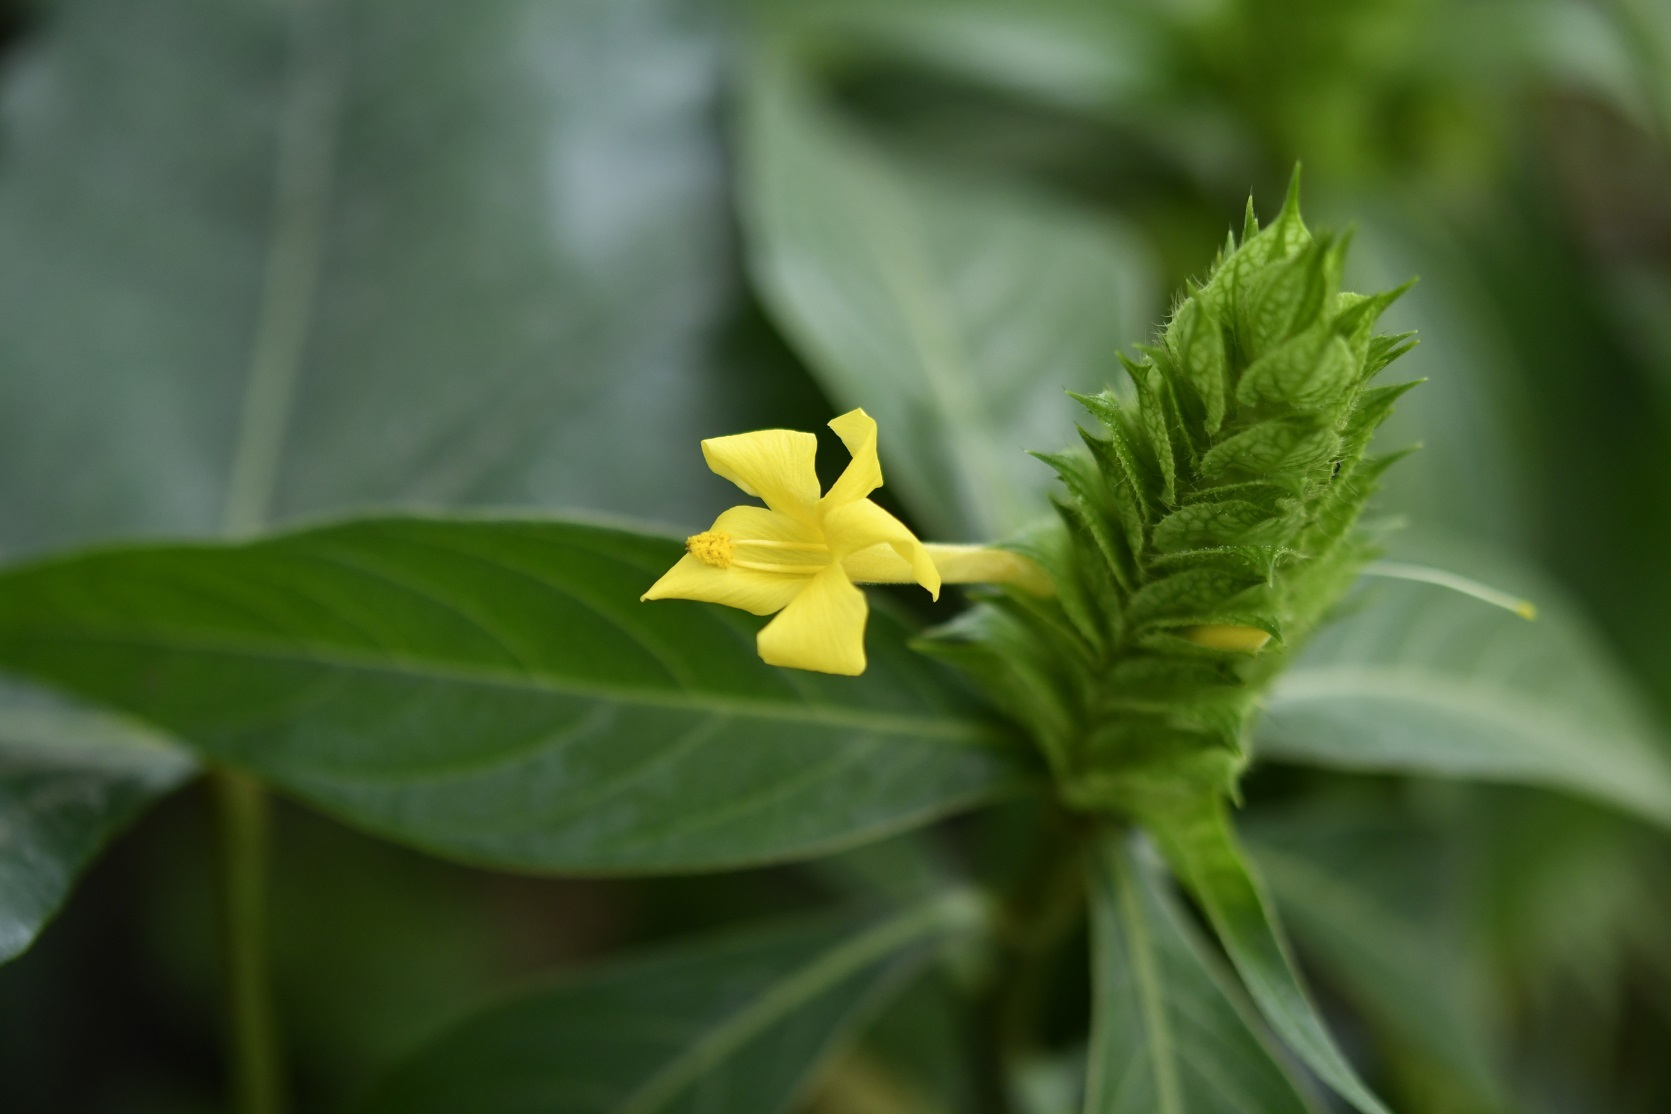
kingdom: Plantae
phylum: Tracheophyta
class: Magnoliopsida
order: Lamiales
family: Acanthaceae
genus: Barleria
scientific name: Barleria oenotheroides
